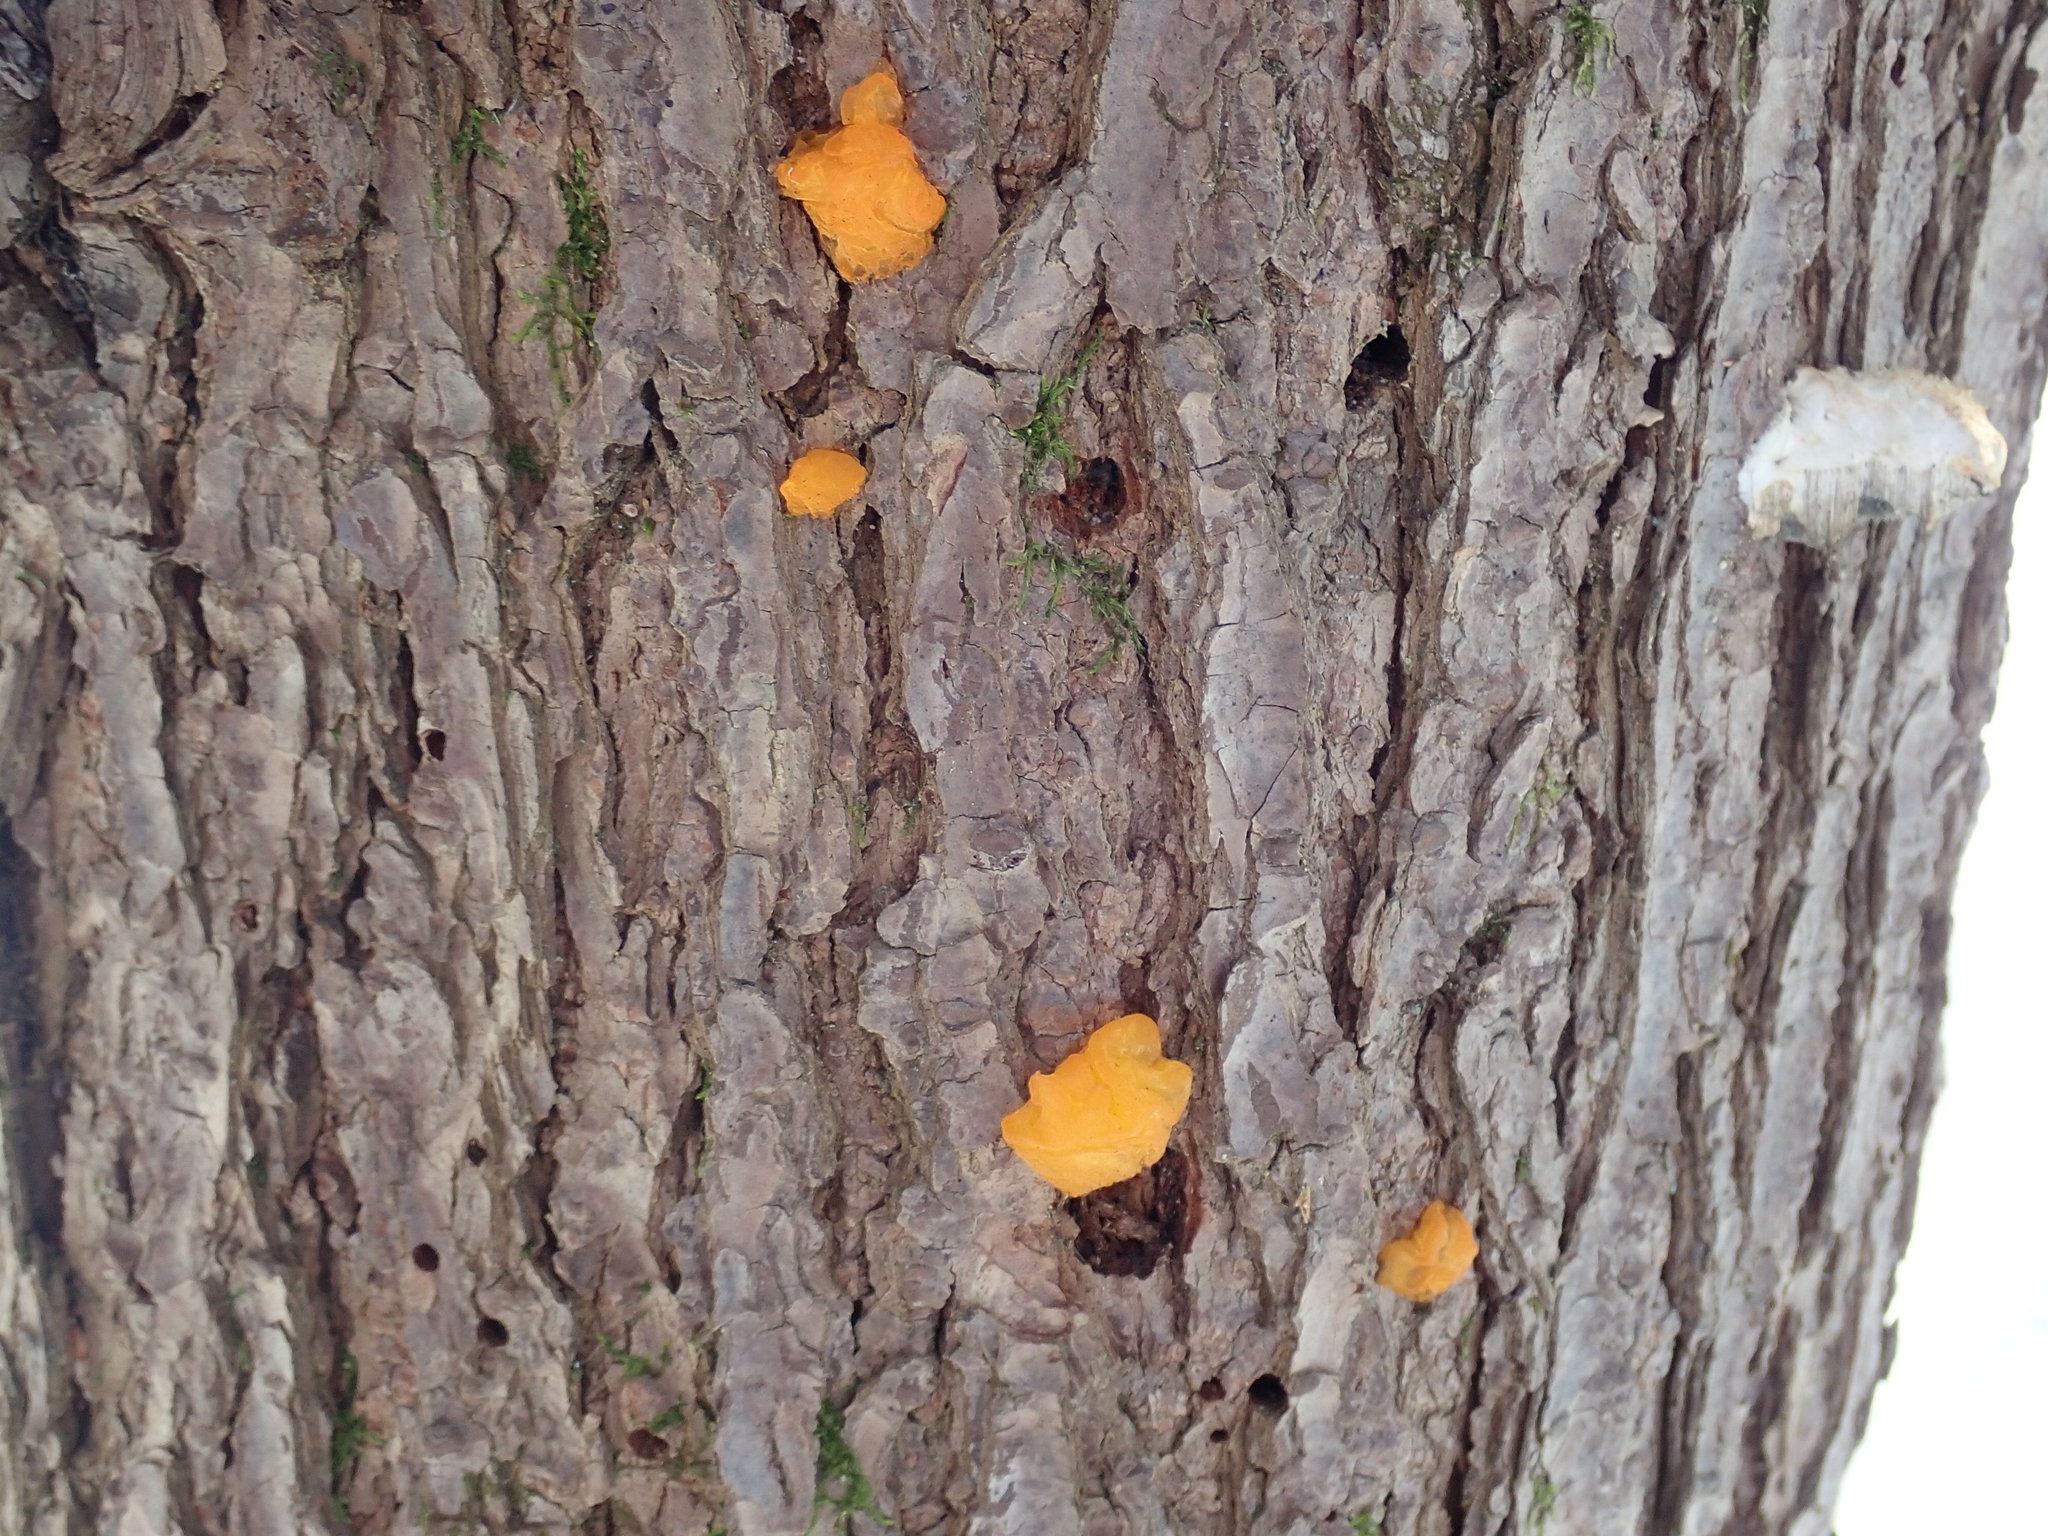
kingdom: Fungi
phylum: Basidiomycota
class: Dacrymycetes
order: Dacrymycetales
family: Dacrymycetaceae
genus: Dacrymyces
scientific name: Dacrymyces chrysospermus
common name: Orange jelly spot
